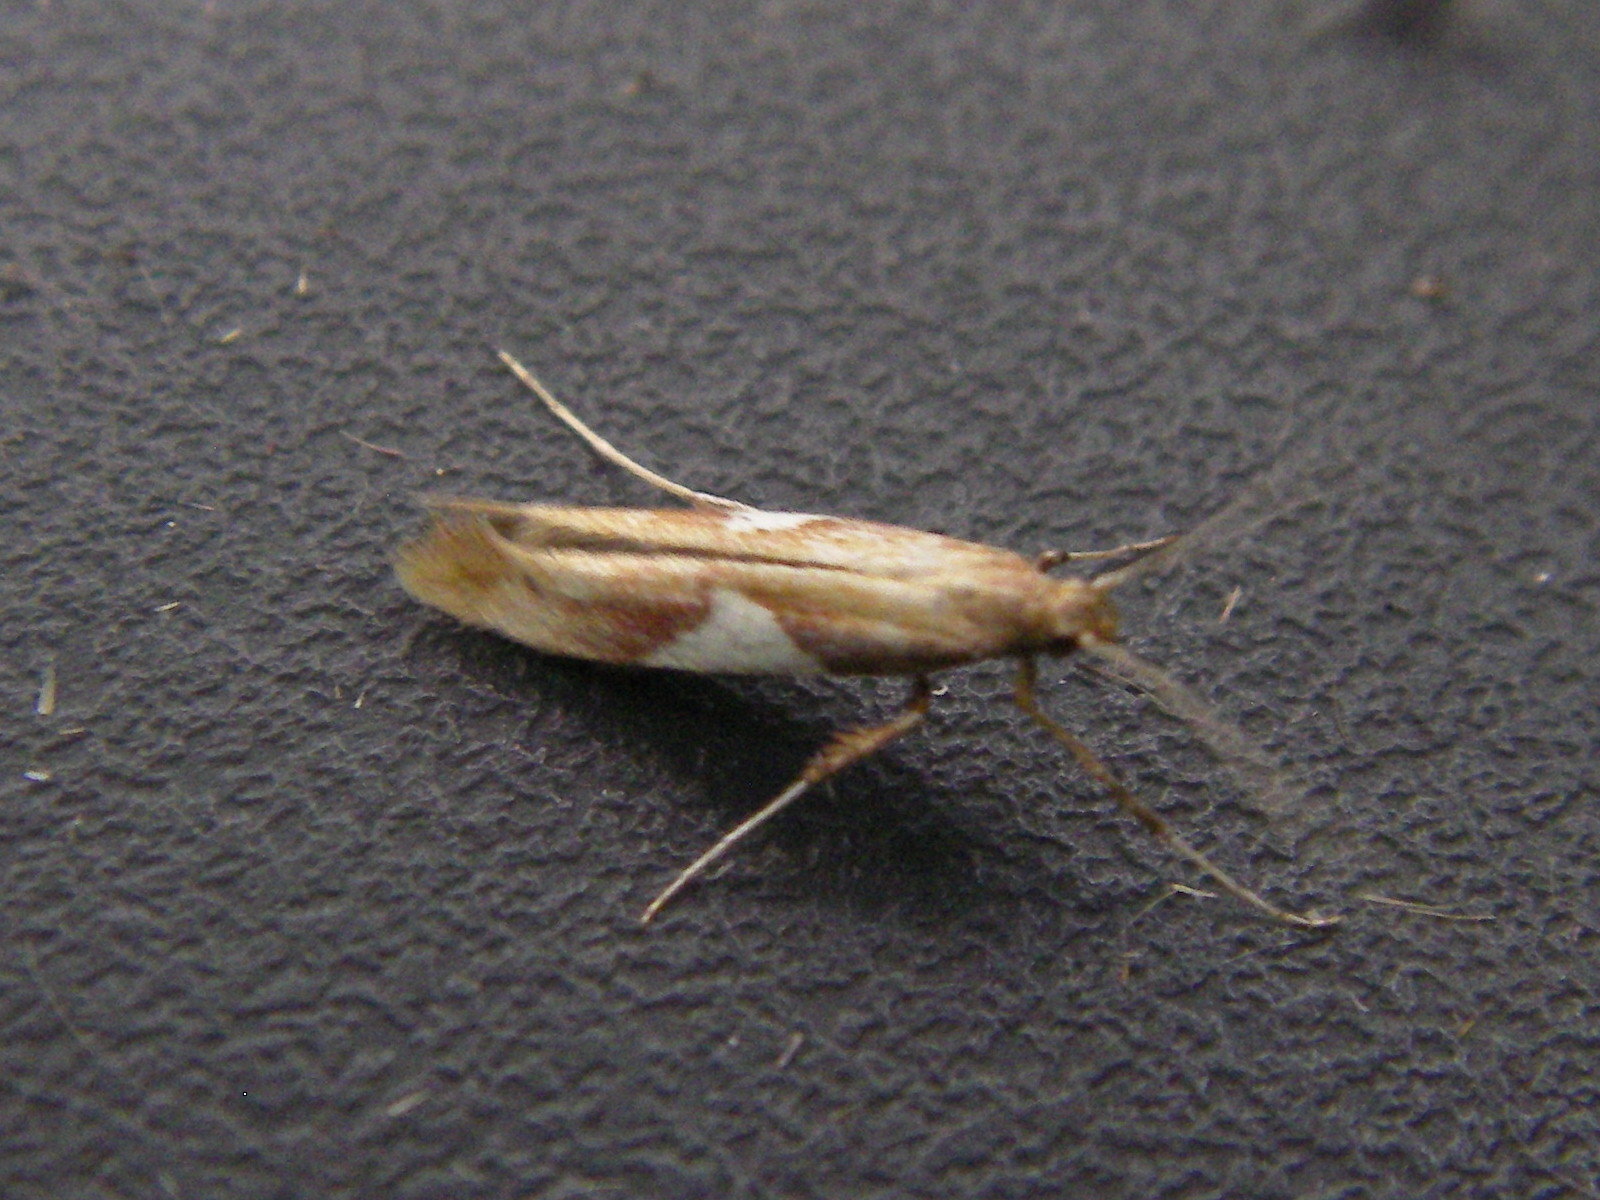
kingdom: Animalia
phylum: Arthropoda
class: Insecta
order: Lepidoptera
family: Gracillariidae
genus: Caloptilia
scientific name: Caloptilia stigmatella
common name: White-triangle slender
